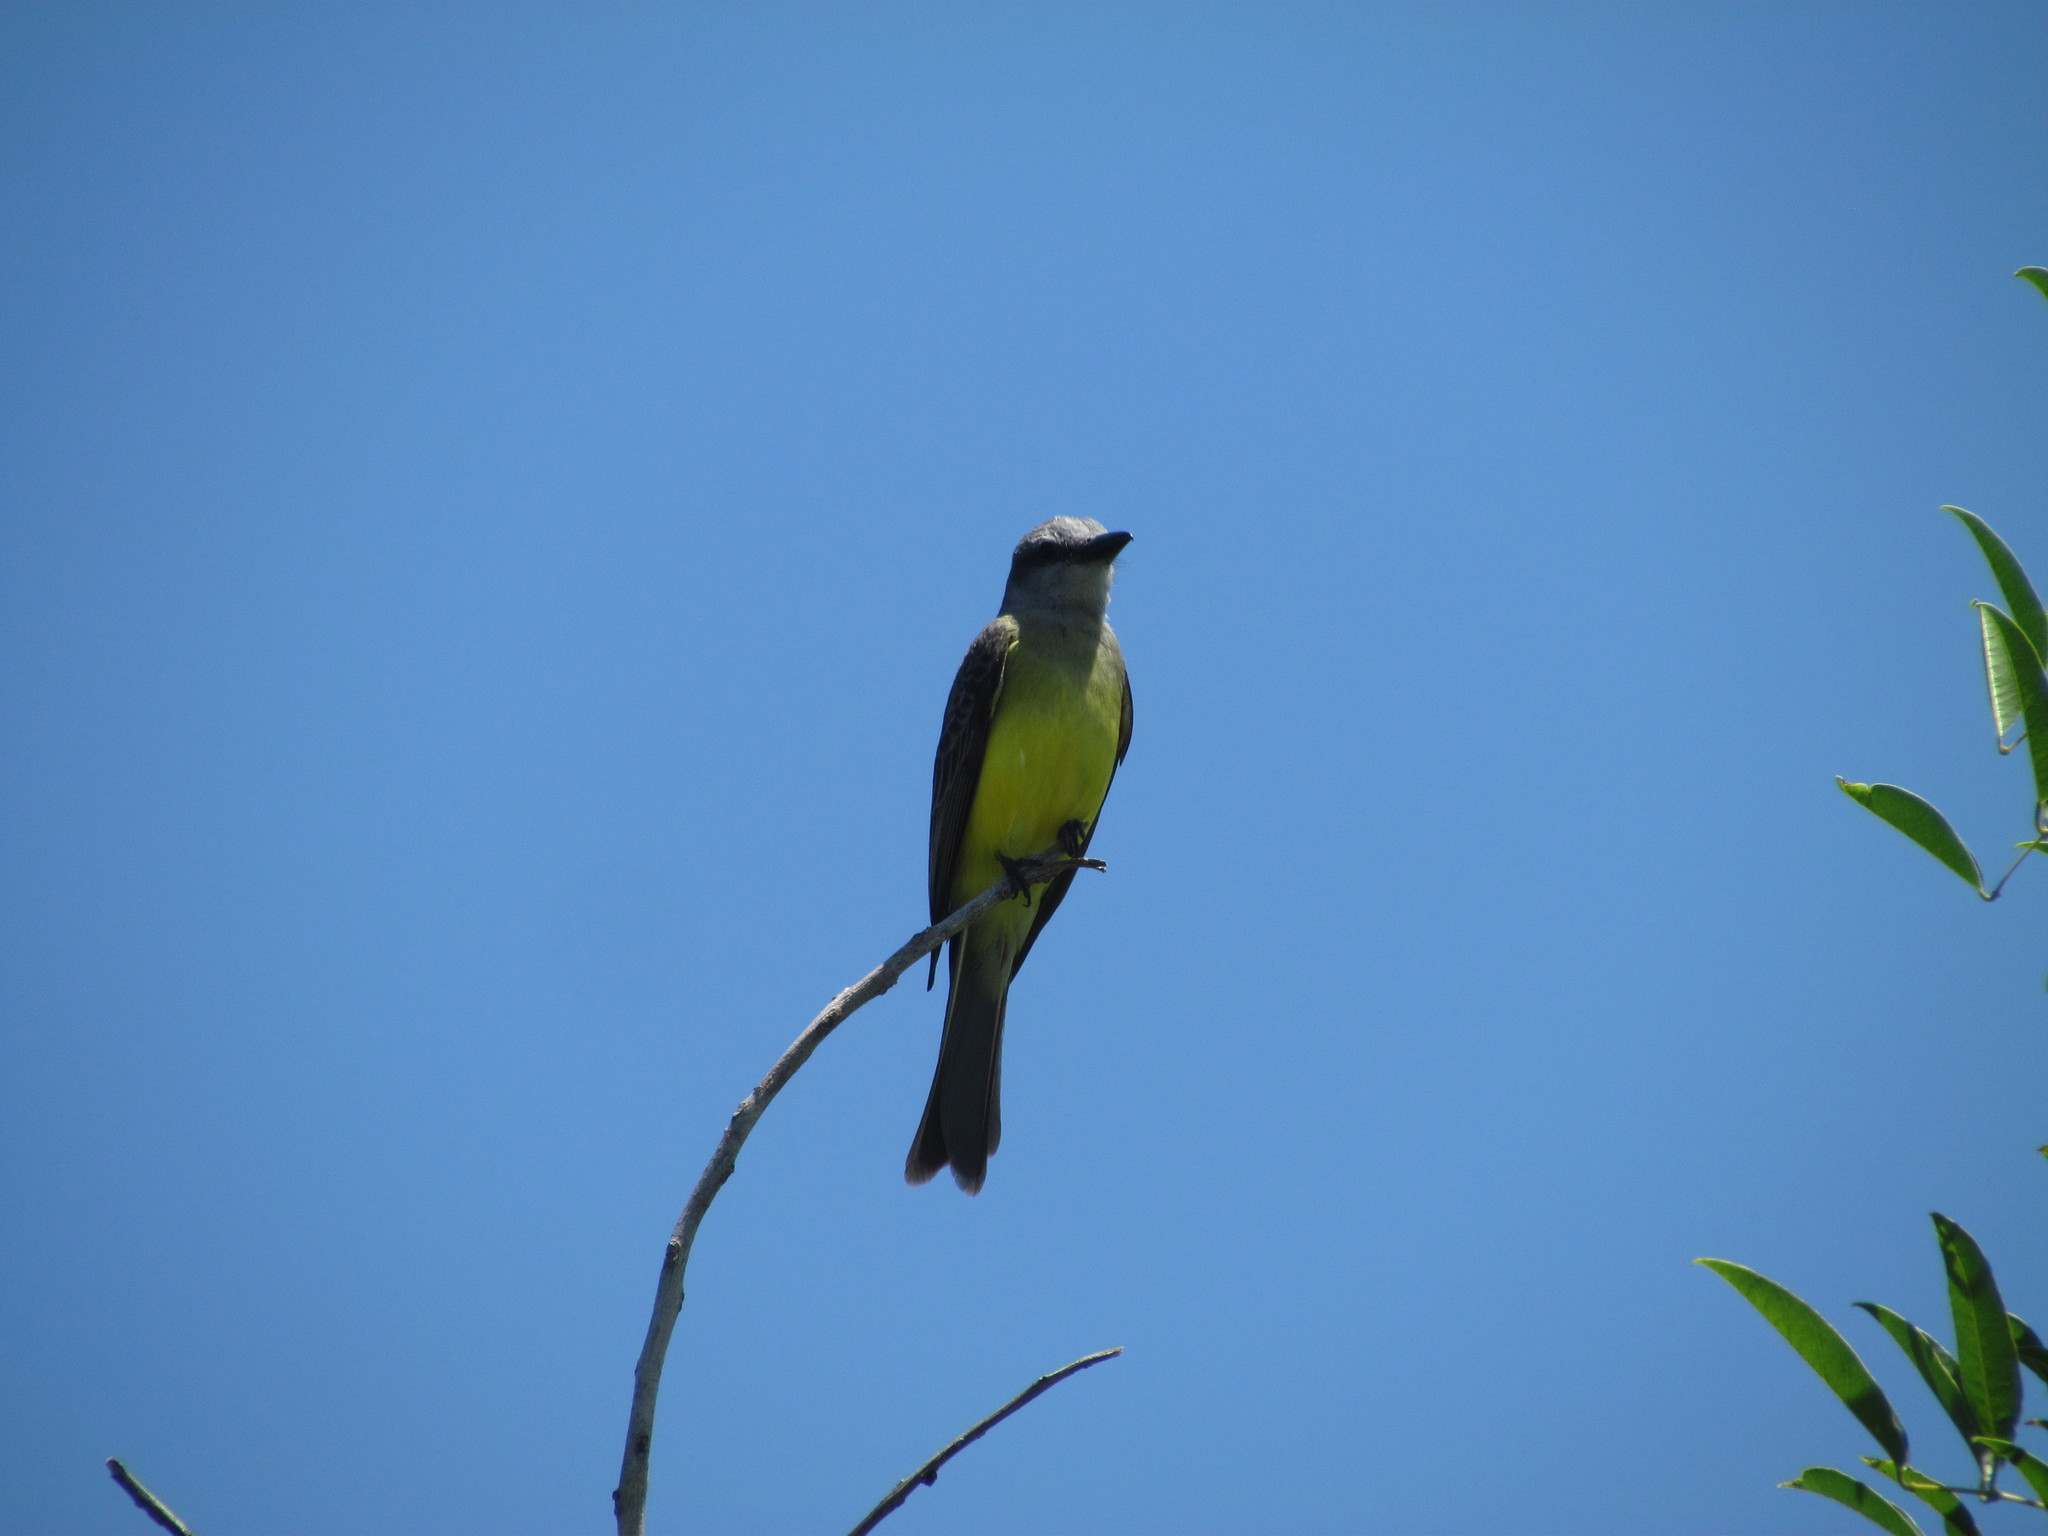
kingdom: Animalia
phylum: Chordata
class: Aves
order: Passeriformes
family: Tyrannidae
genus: Tyrannus
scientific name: Tyrannus melancholicus
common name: Tropical kingbird
